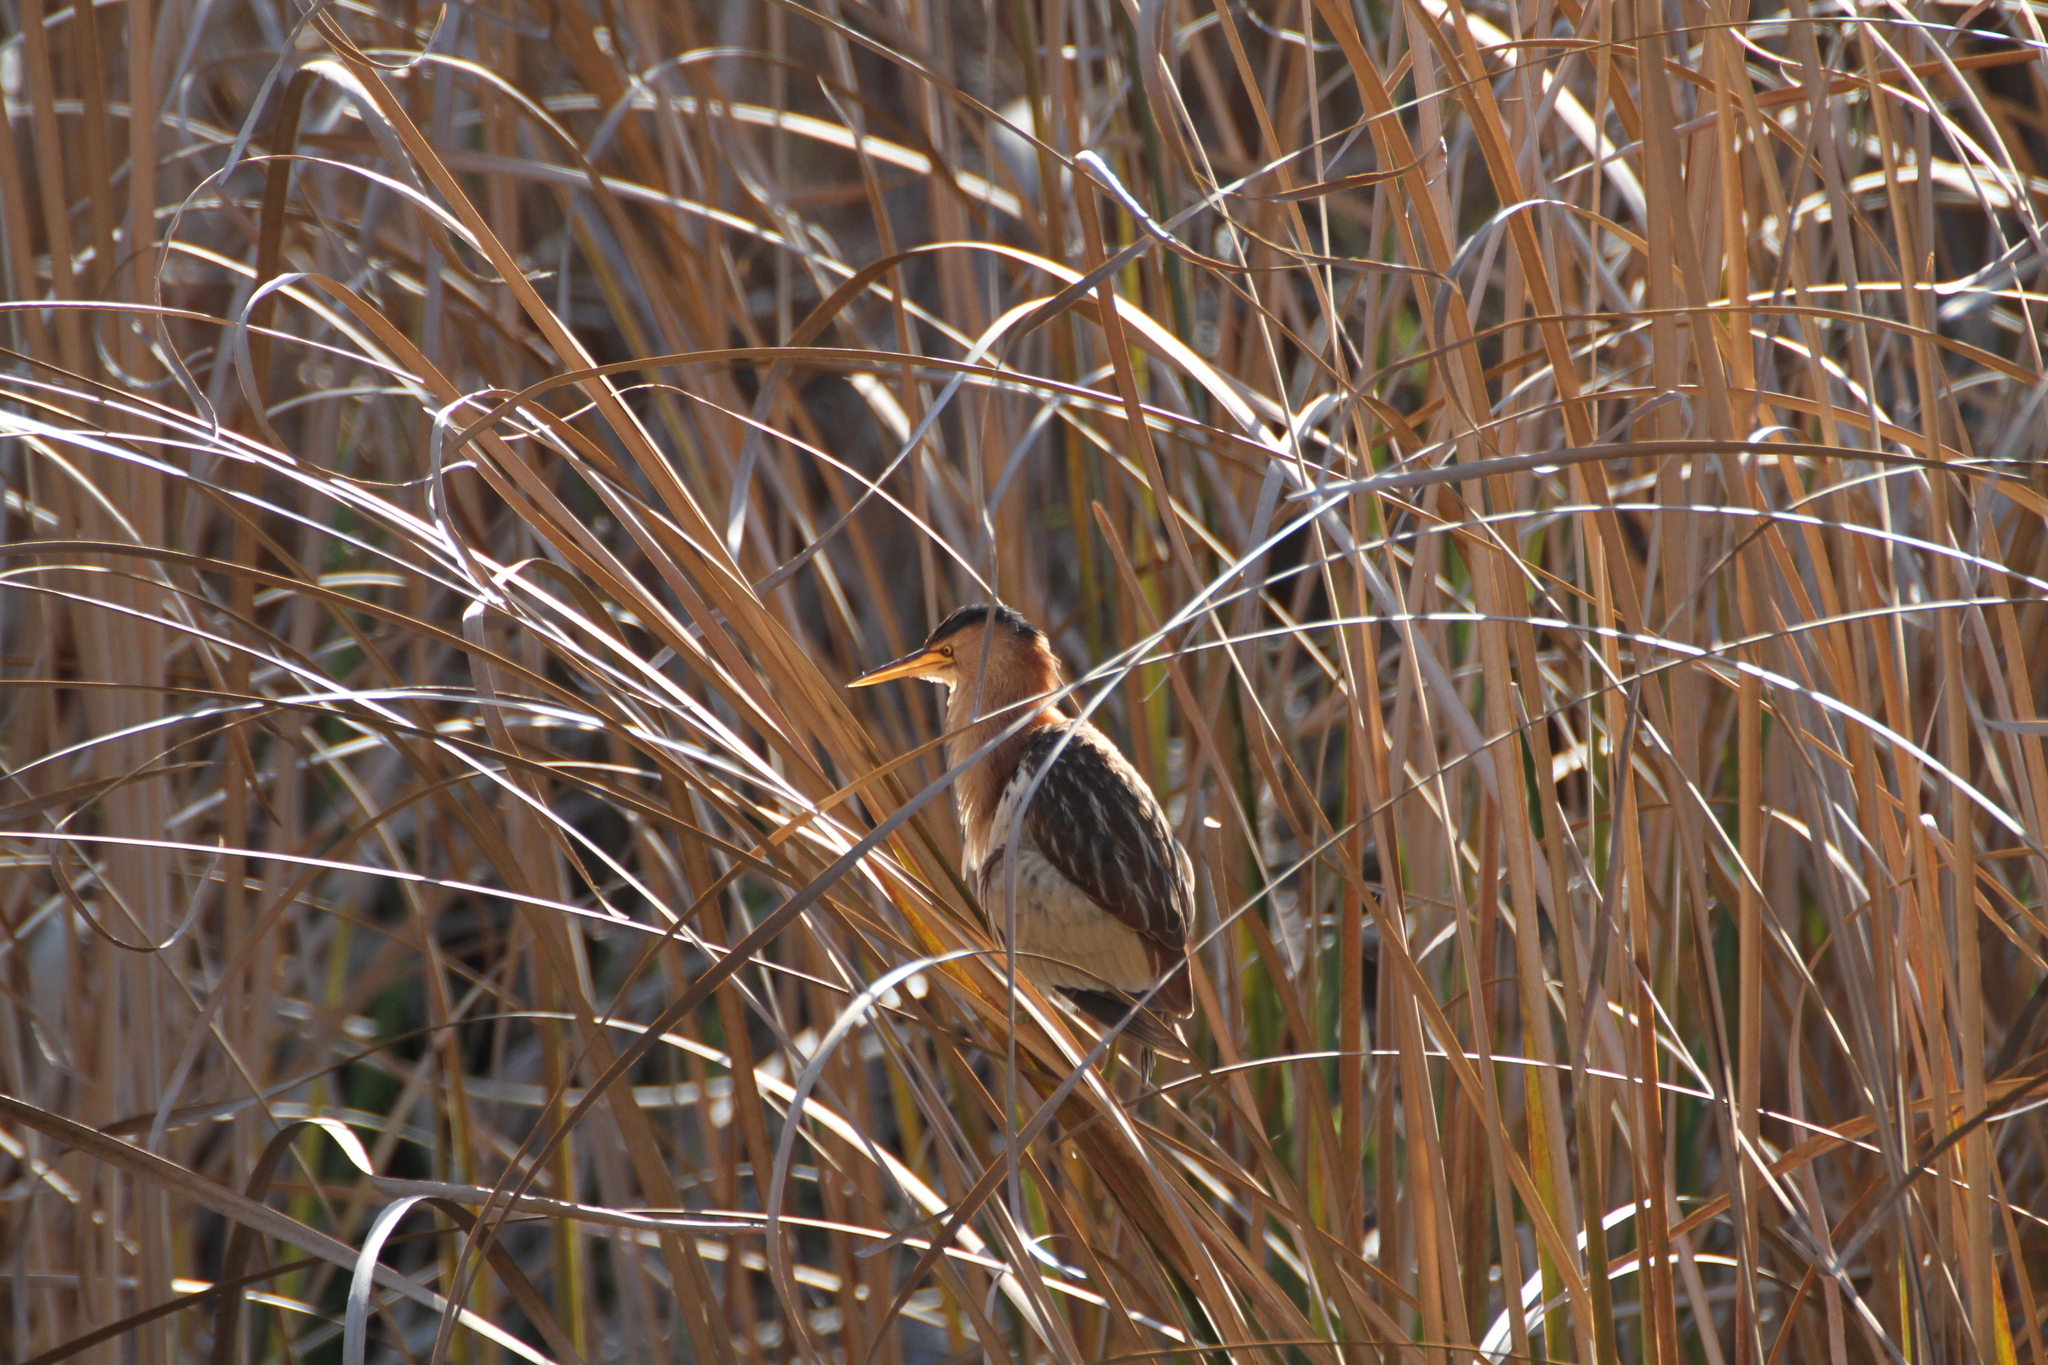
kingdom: Animalia
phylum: Chordata
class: Aves
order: Pelecaniformes
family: Ardeidae
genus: Ixobrychus
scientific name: Ixobrychus minutus
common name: Little bittern
